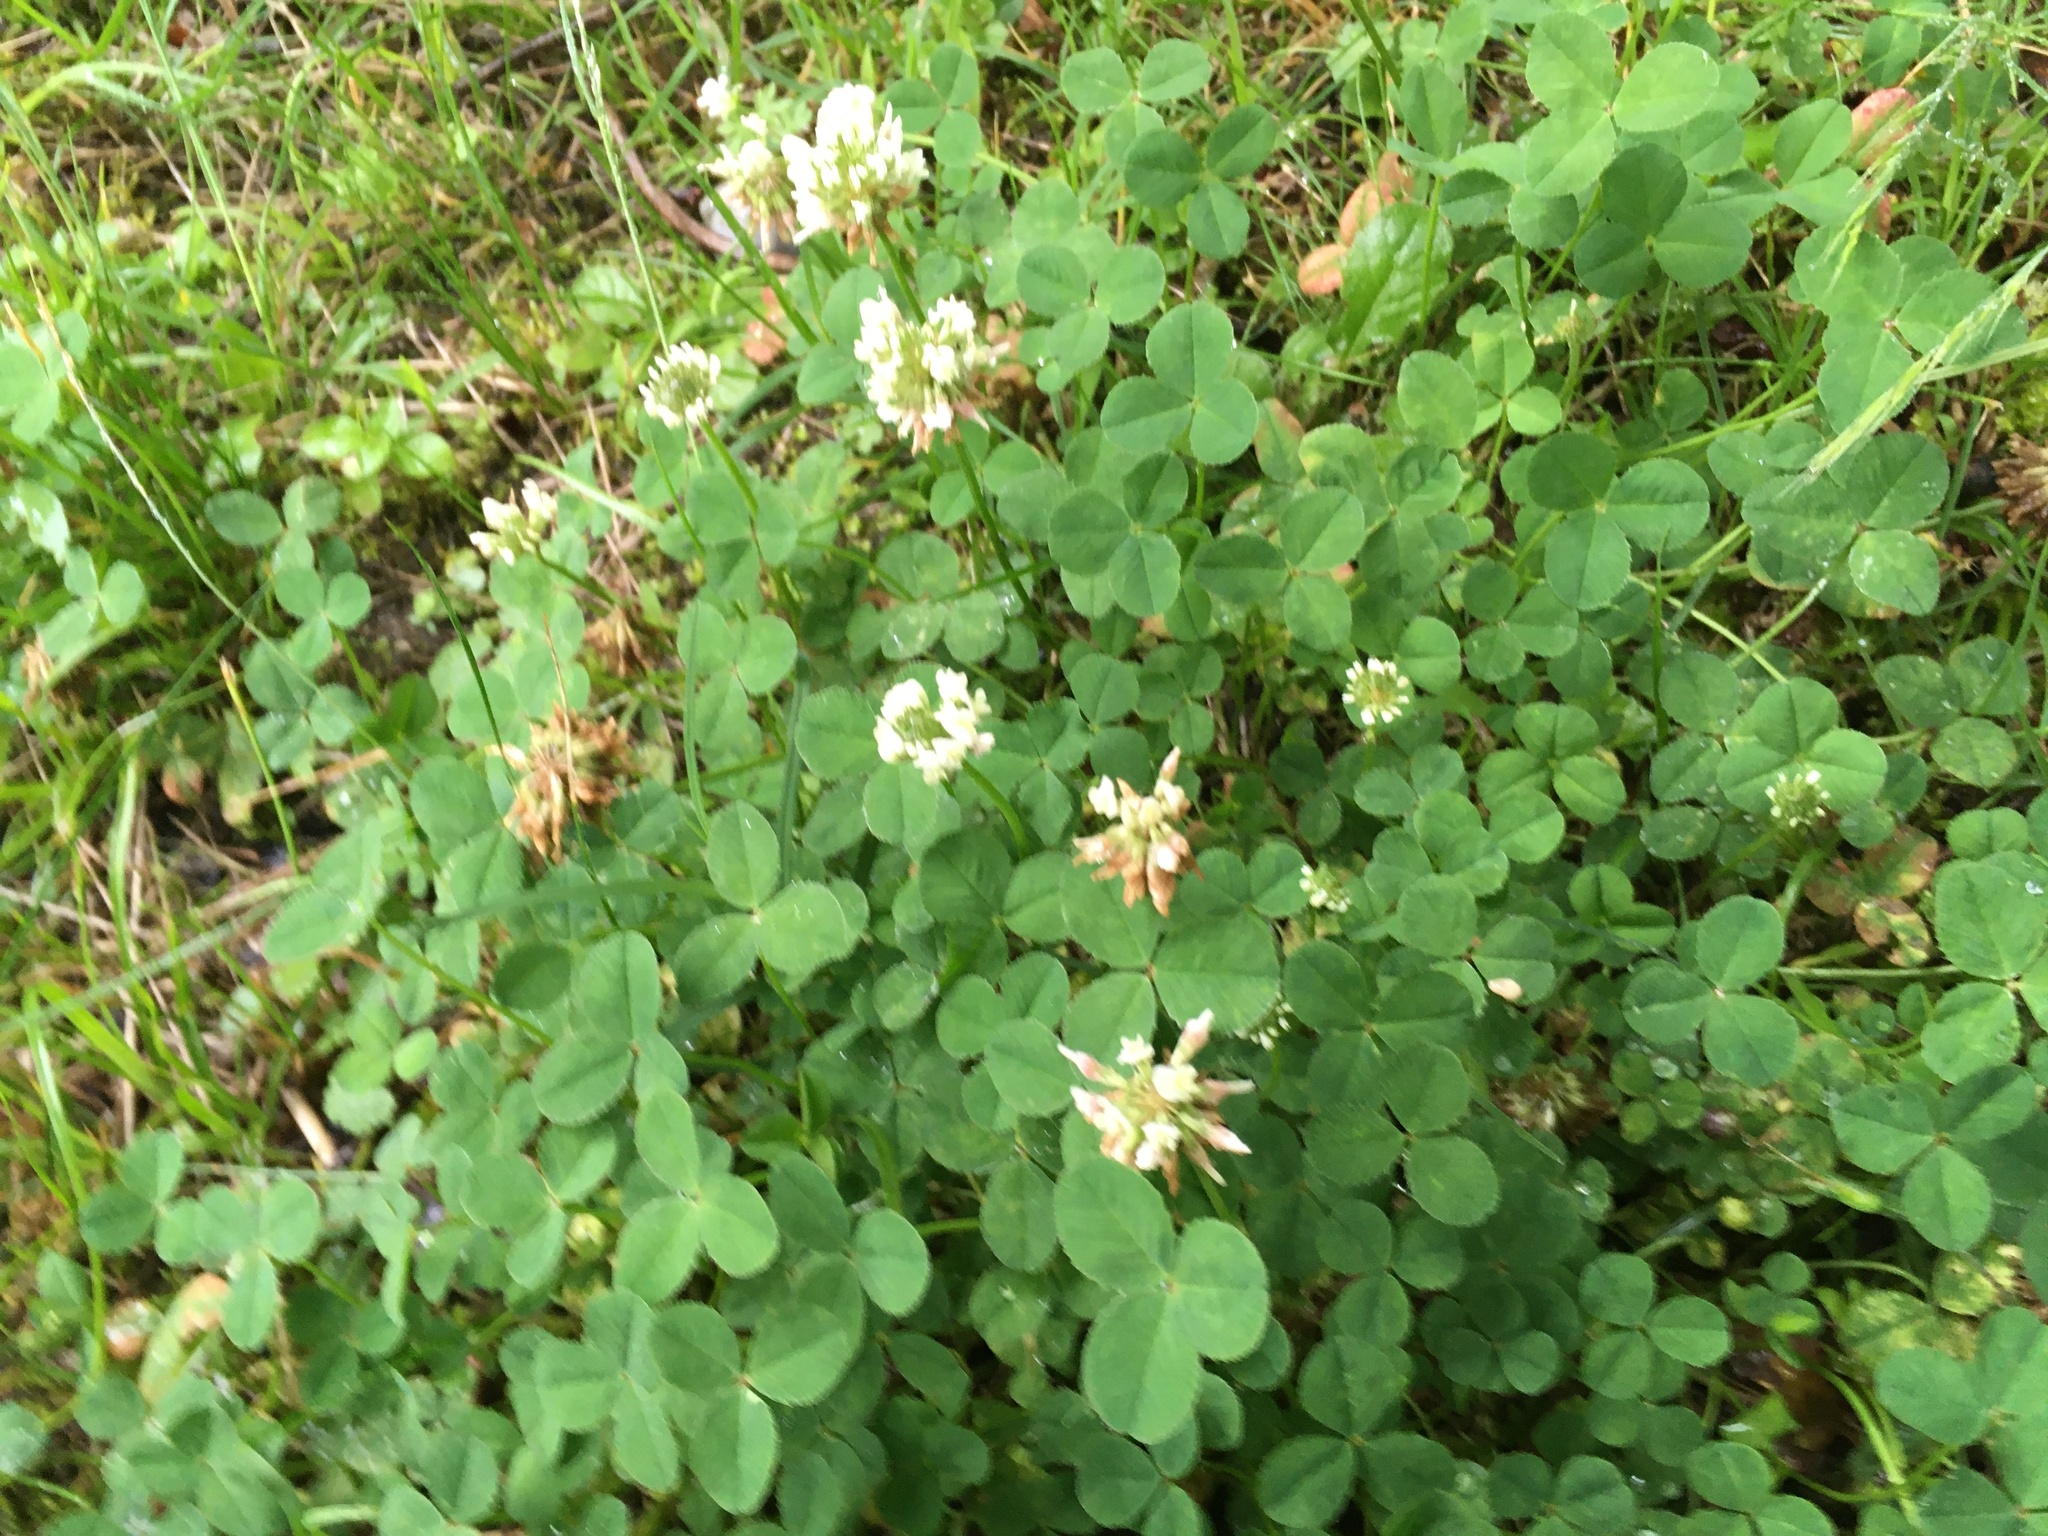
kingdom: Plantae
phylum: Tracheophyta
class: Magnoliopsida
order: Fabales
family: Fabaceae
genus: Trifolium
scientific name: Trifolium repens
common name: White clover
